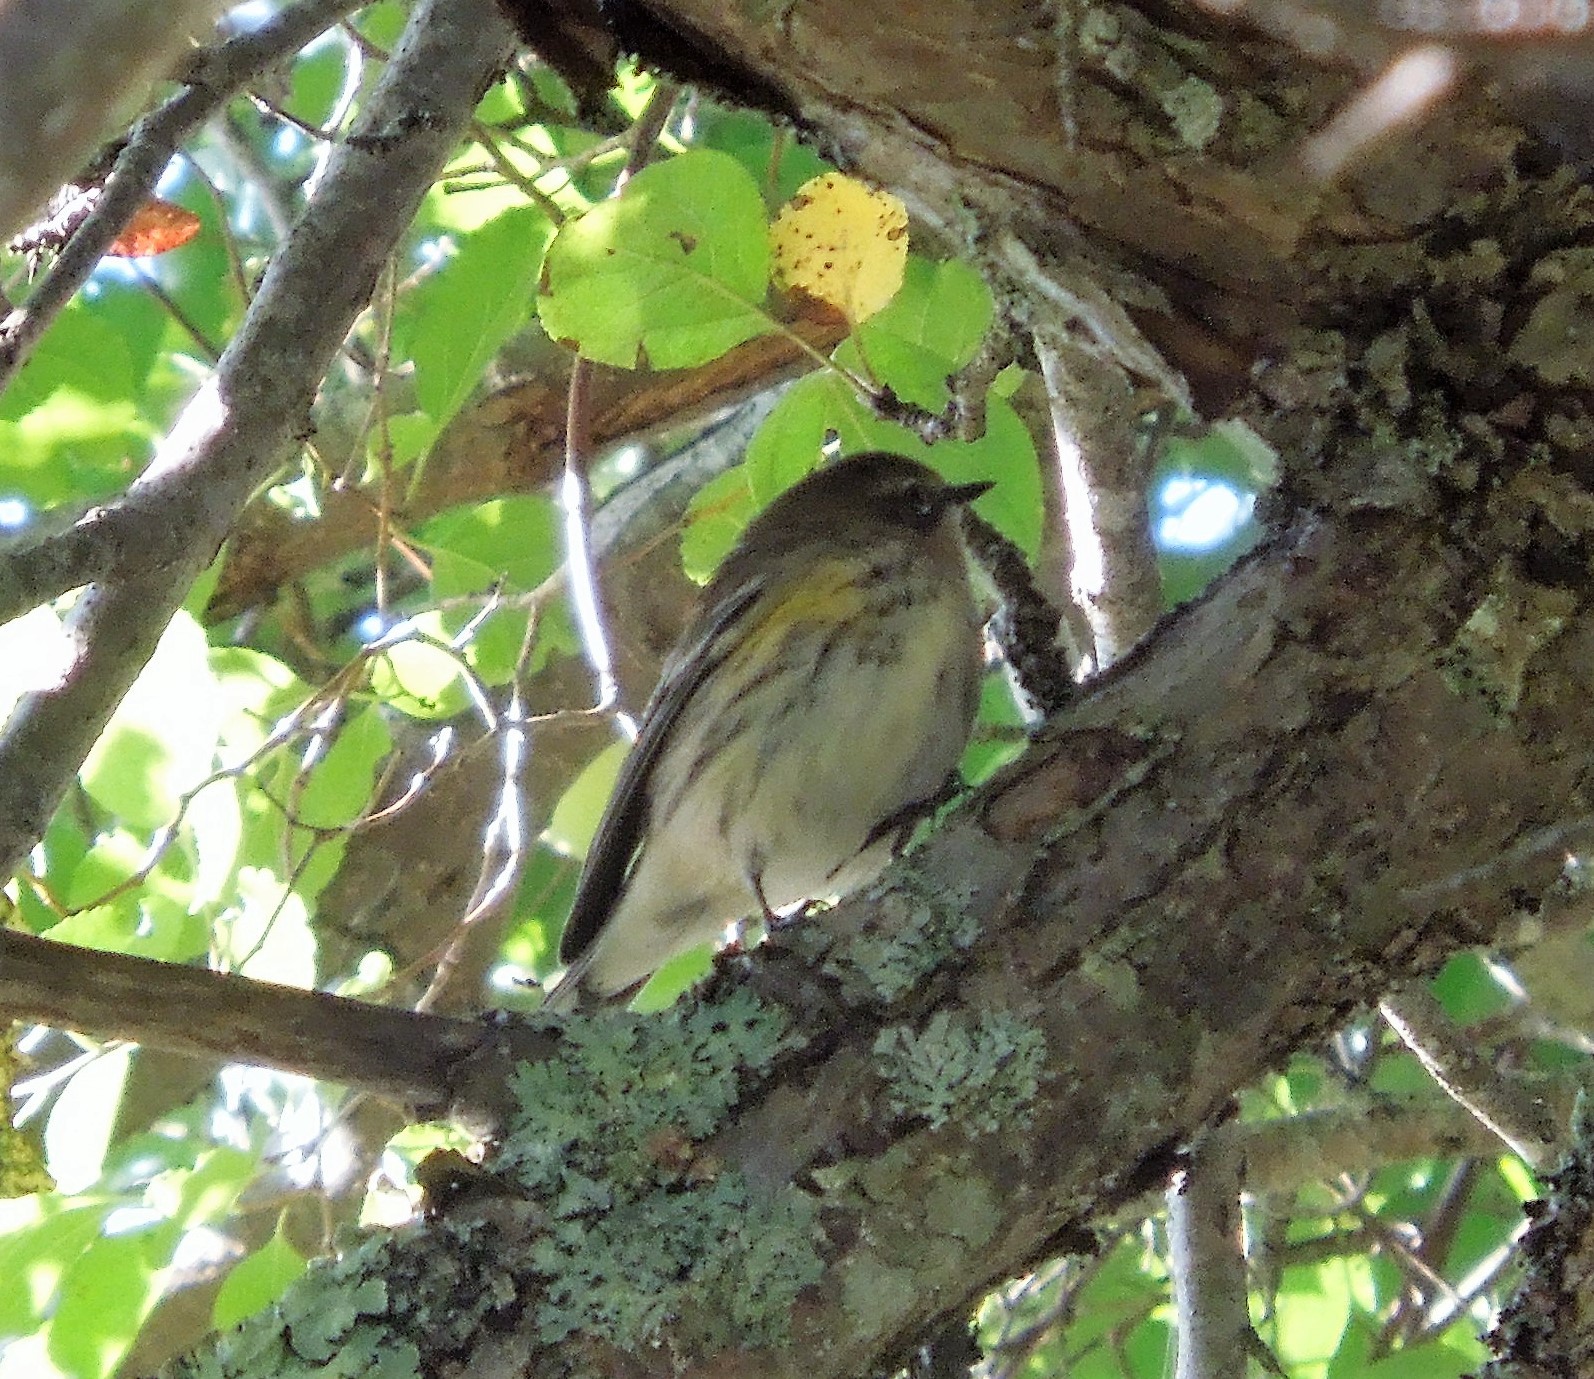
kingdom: Animalia
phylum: Chordata
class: Aves
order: Passeriformes
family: Parulidae
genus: Setophaga
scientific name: Setophaga coronata
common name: Myrtle warbler
